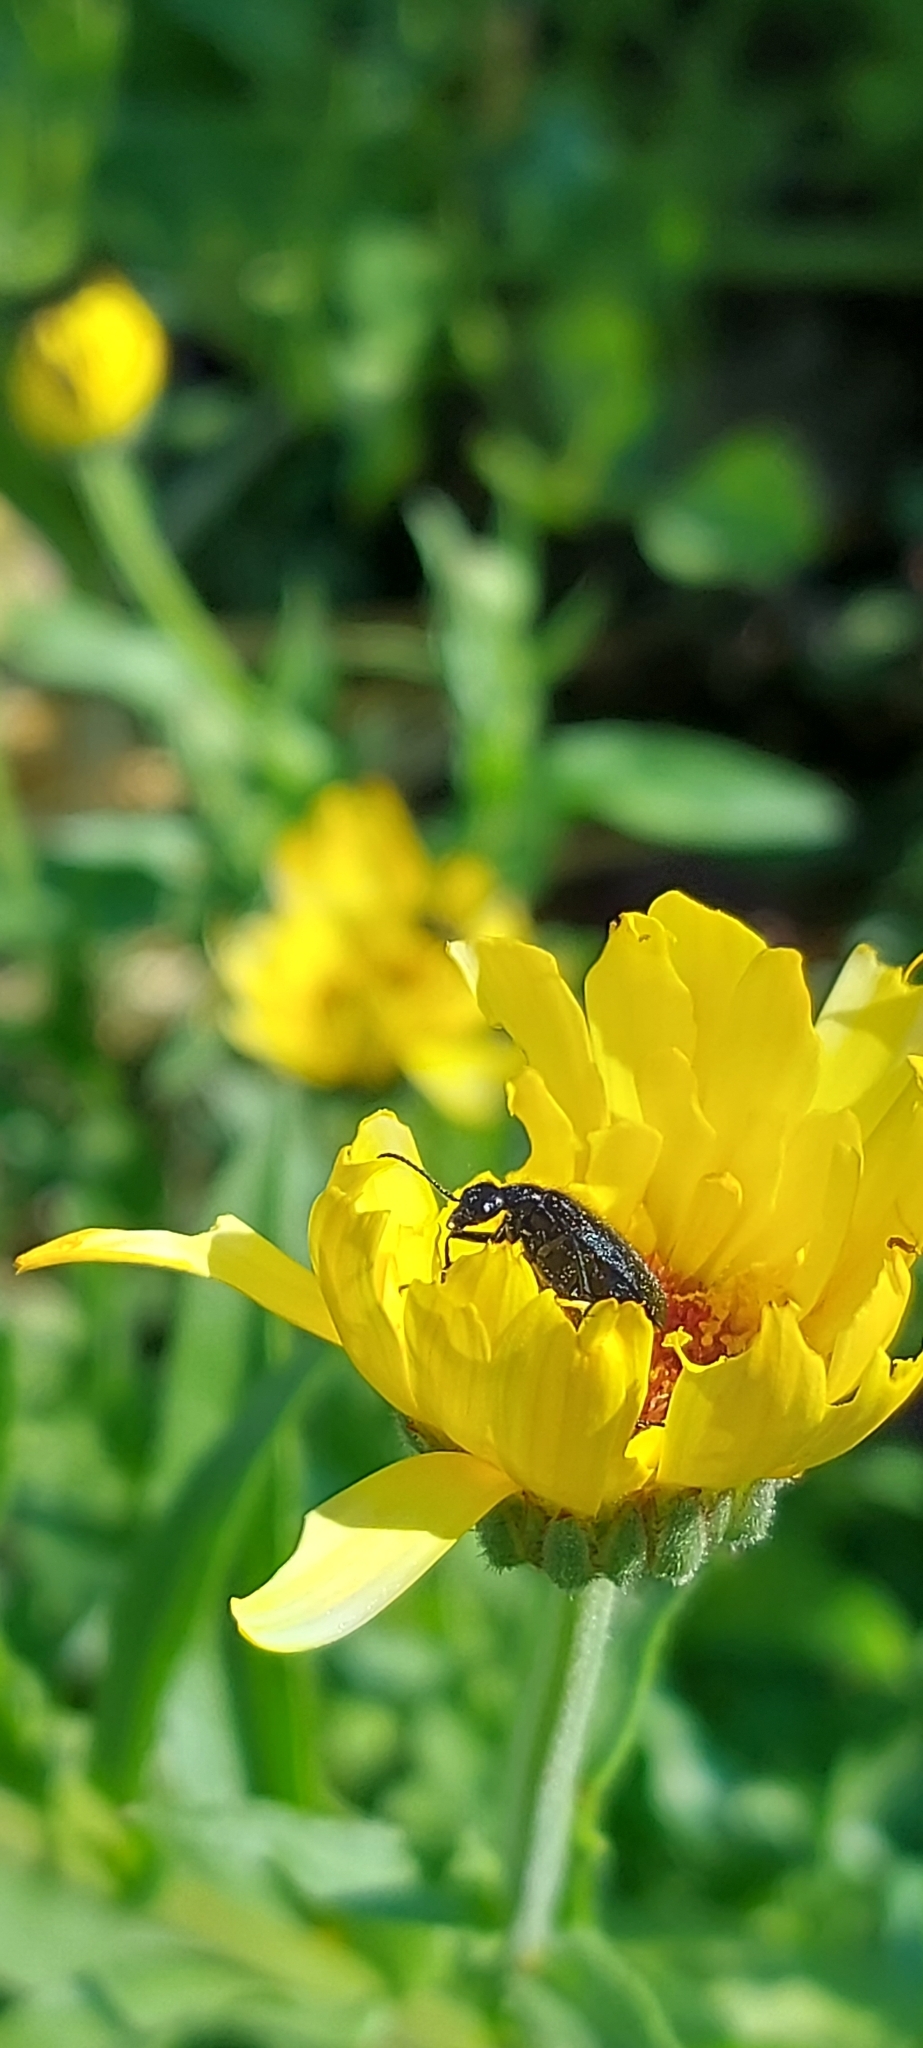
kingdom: Animalia
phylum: Arthropoda
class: Insecta
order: Coleoptera
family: Meloidae
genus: Epicauta
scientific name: Epicauta puncticollis
